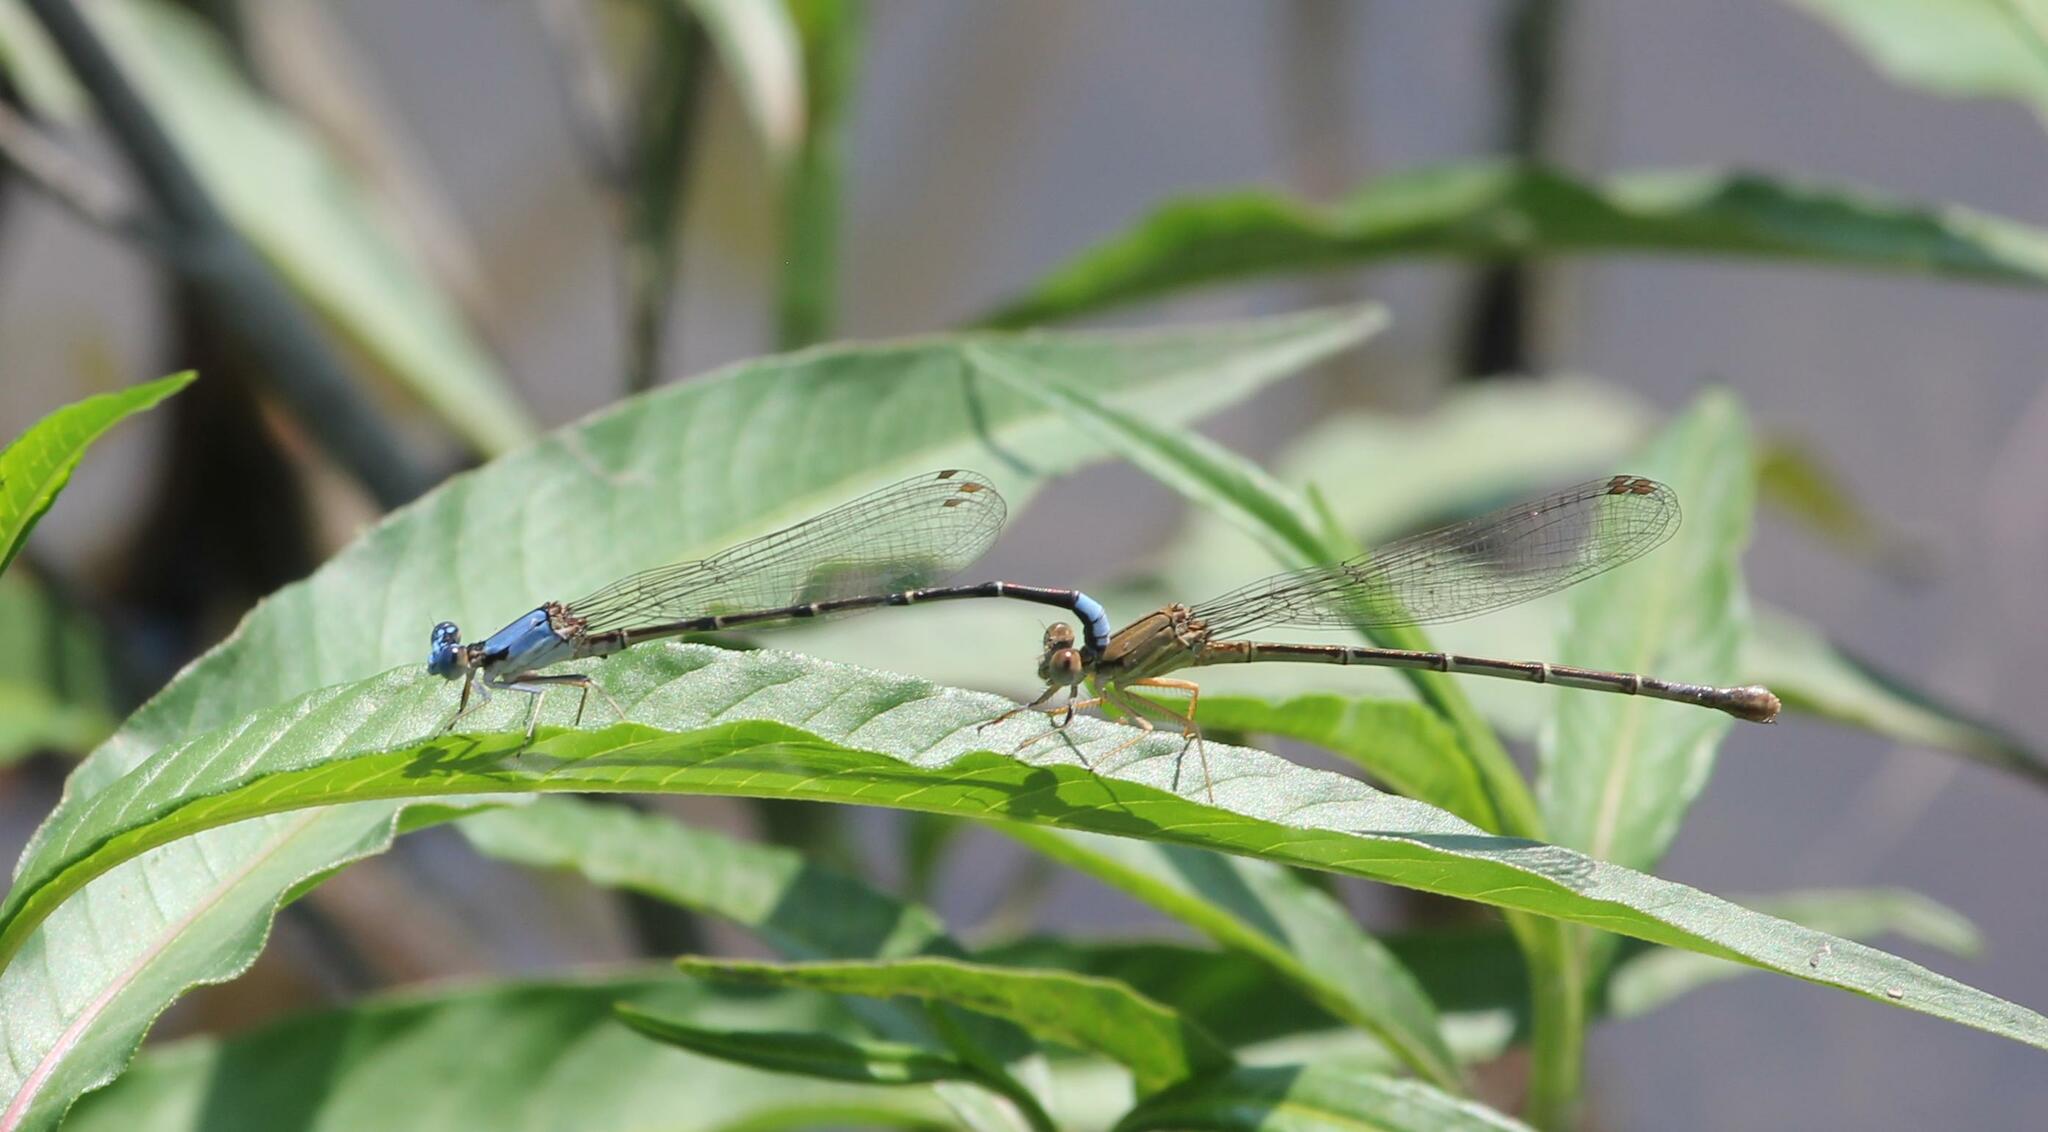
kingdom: Animalia
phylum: Arthropoda
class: Insecta
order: Odonata
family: Coenagrionidae
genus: Argia
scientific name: Argia apicalis
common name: Blue-fronted dancer
